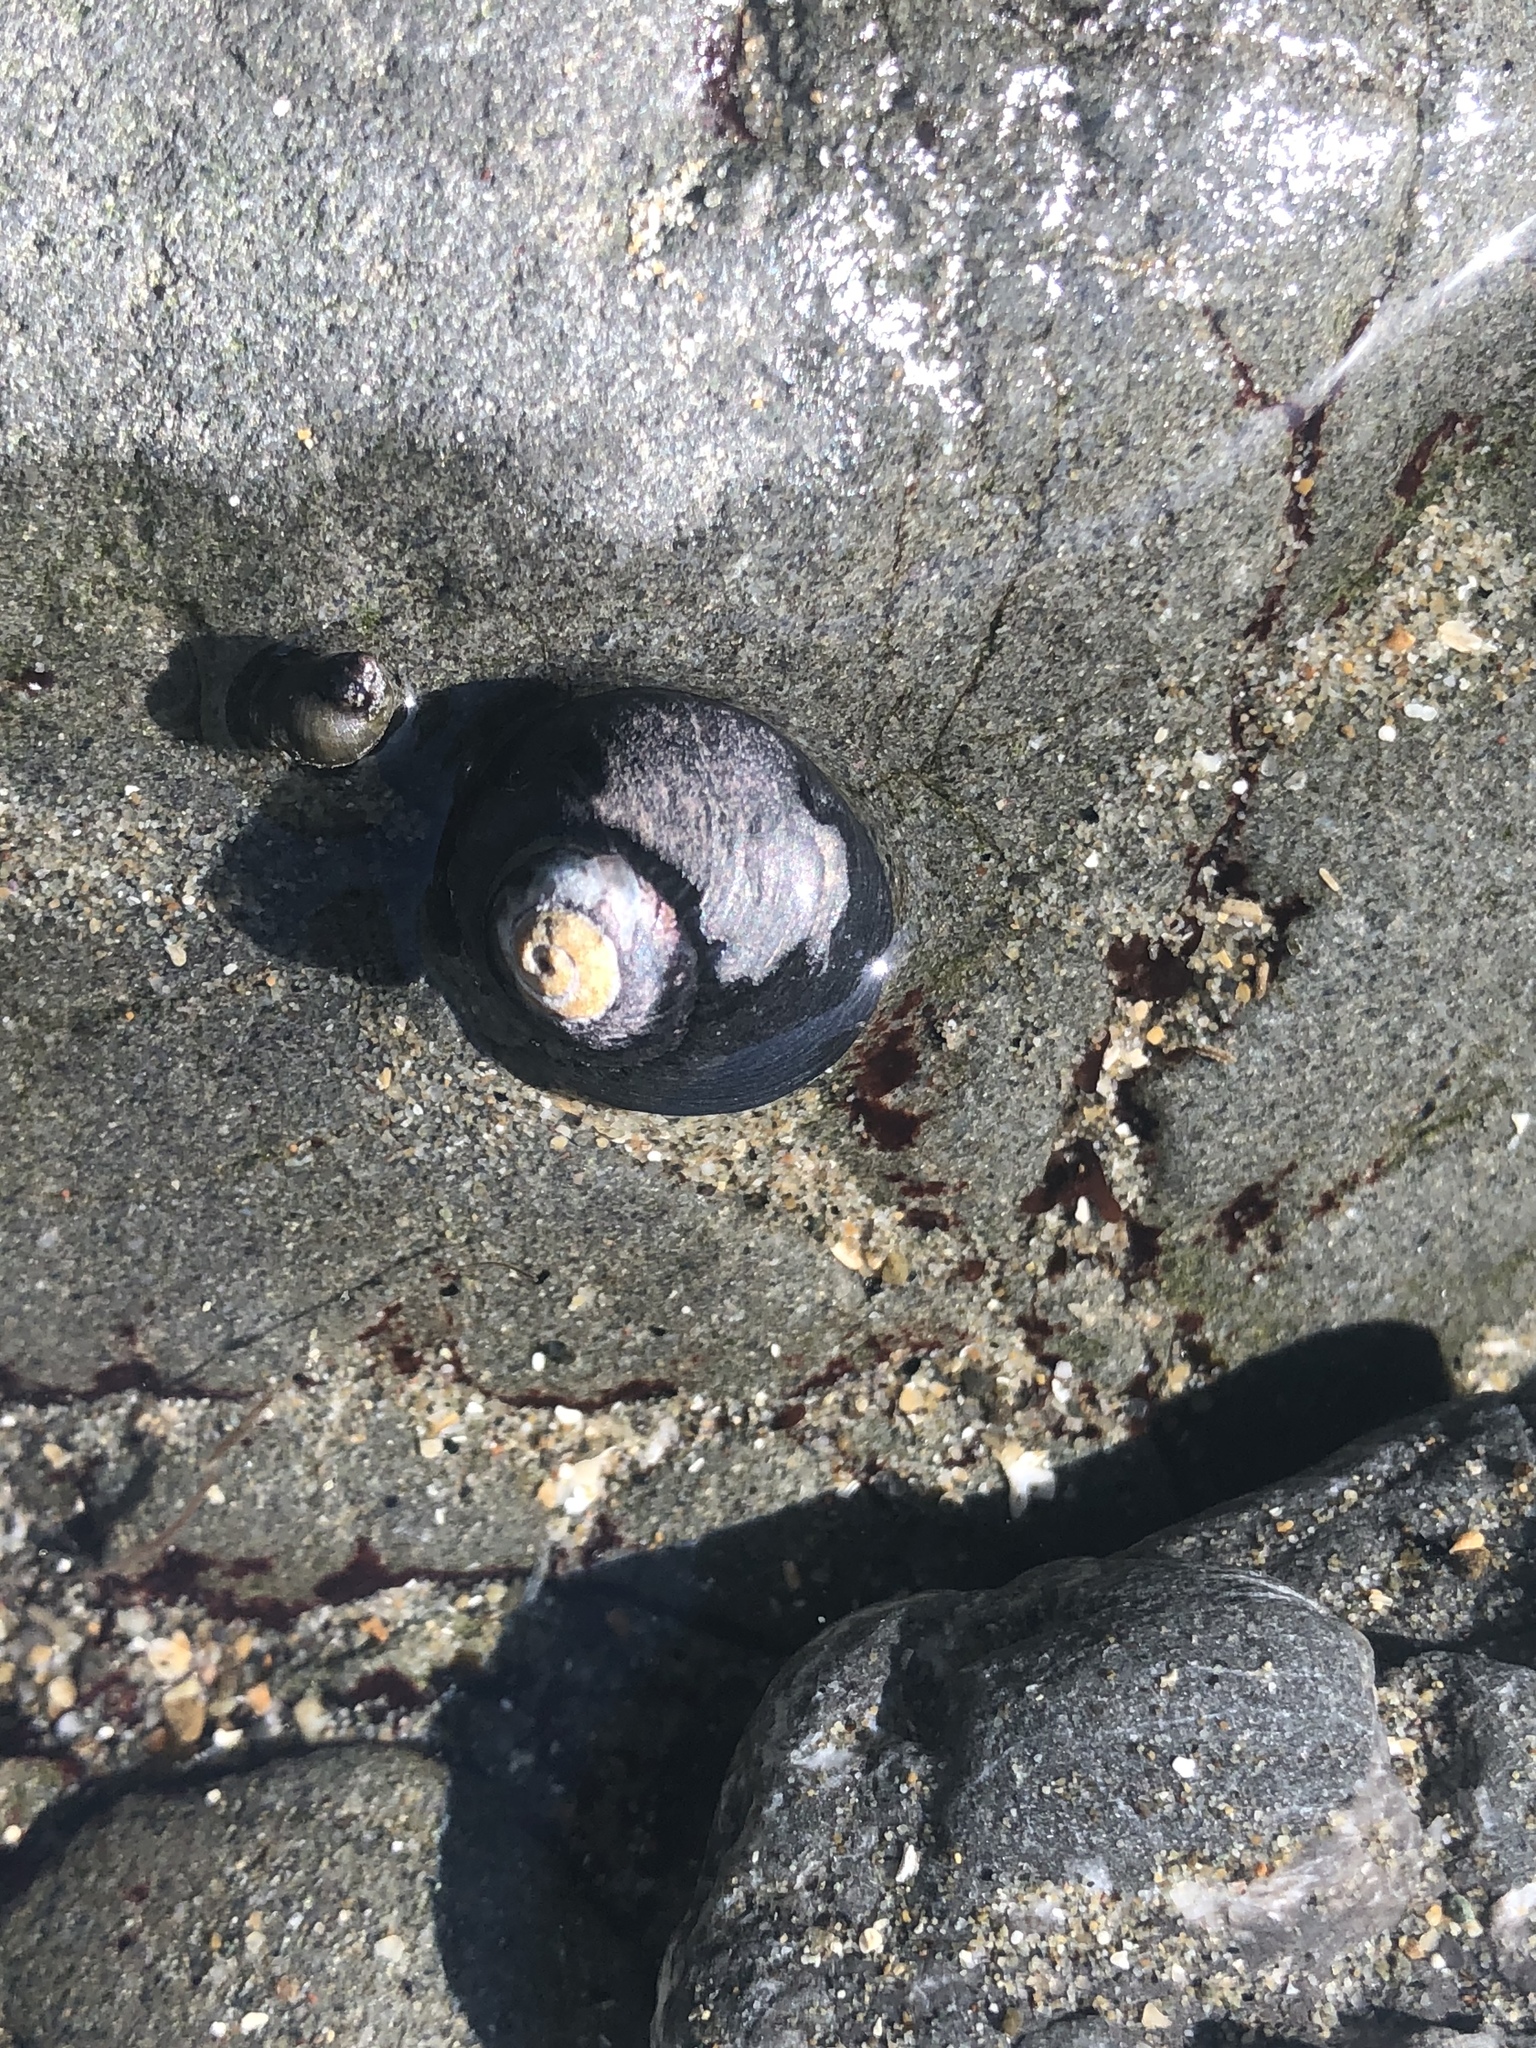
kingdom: Animalia
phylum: Mollusca
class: Gastropoda
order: Trochida
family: Tegulidae
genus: Tegula
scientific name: Tegula funebralis
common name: Black tegula
